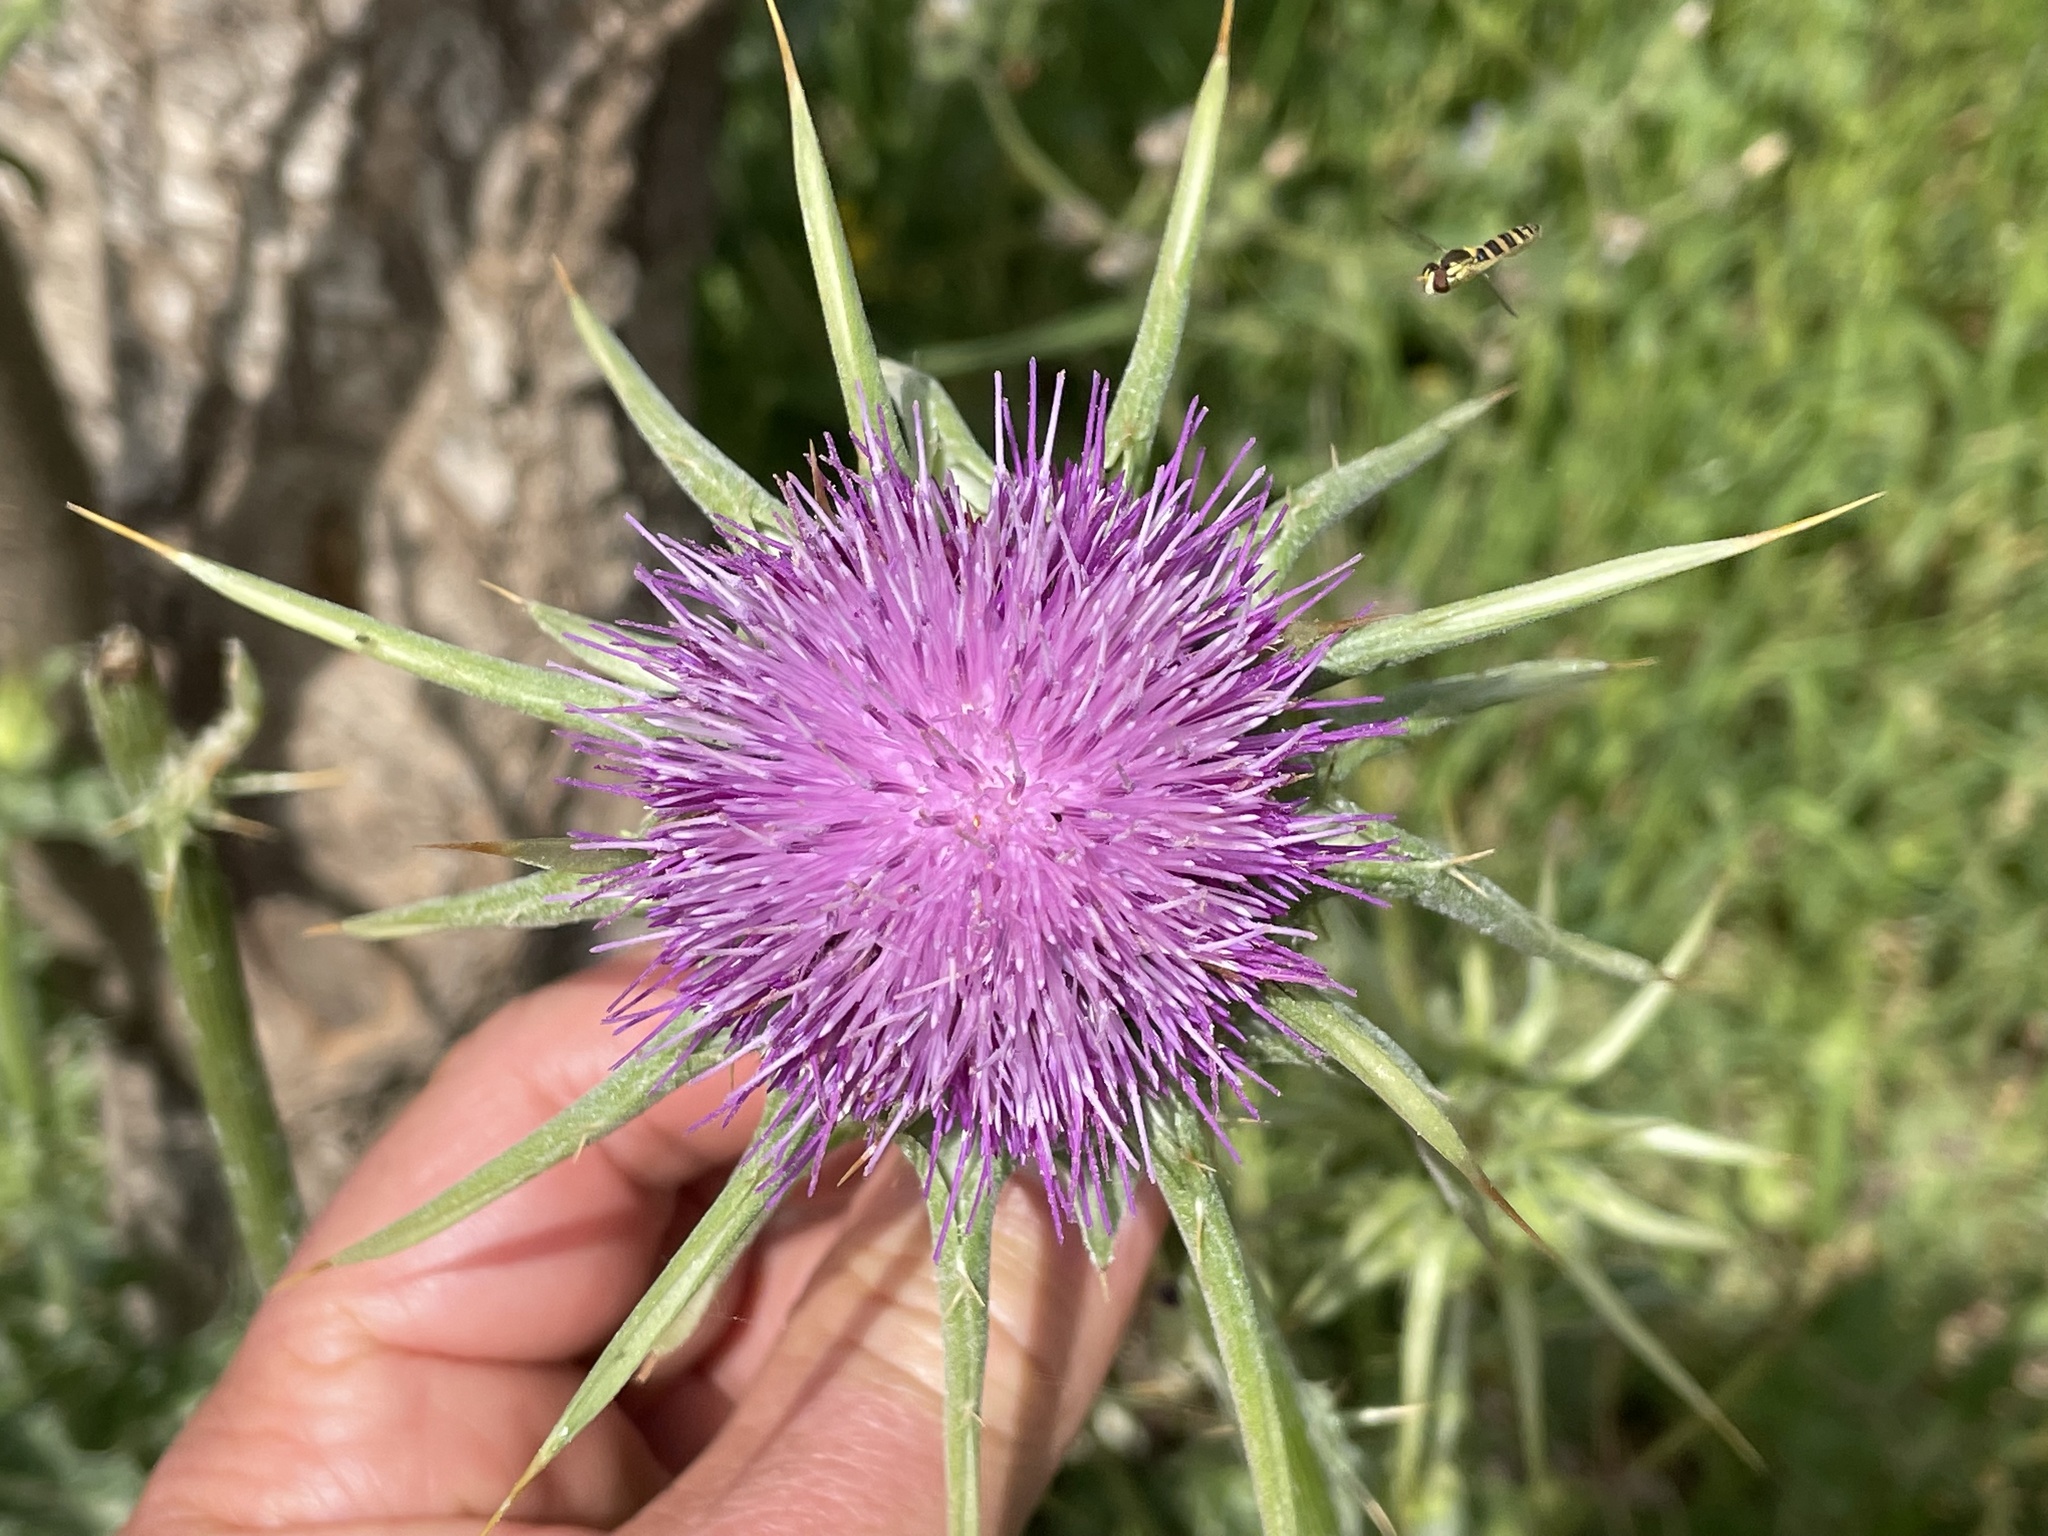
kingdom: Plantae
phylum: Tracheophyta
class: Magnoliopsida
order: Asterales
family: Asteraceae
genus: Silybum
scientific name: Silybum marianum
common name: Milk thistle
